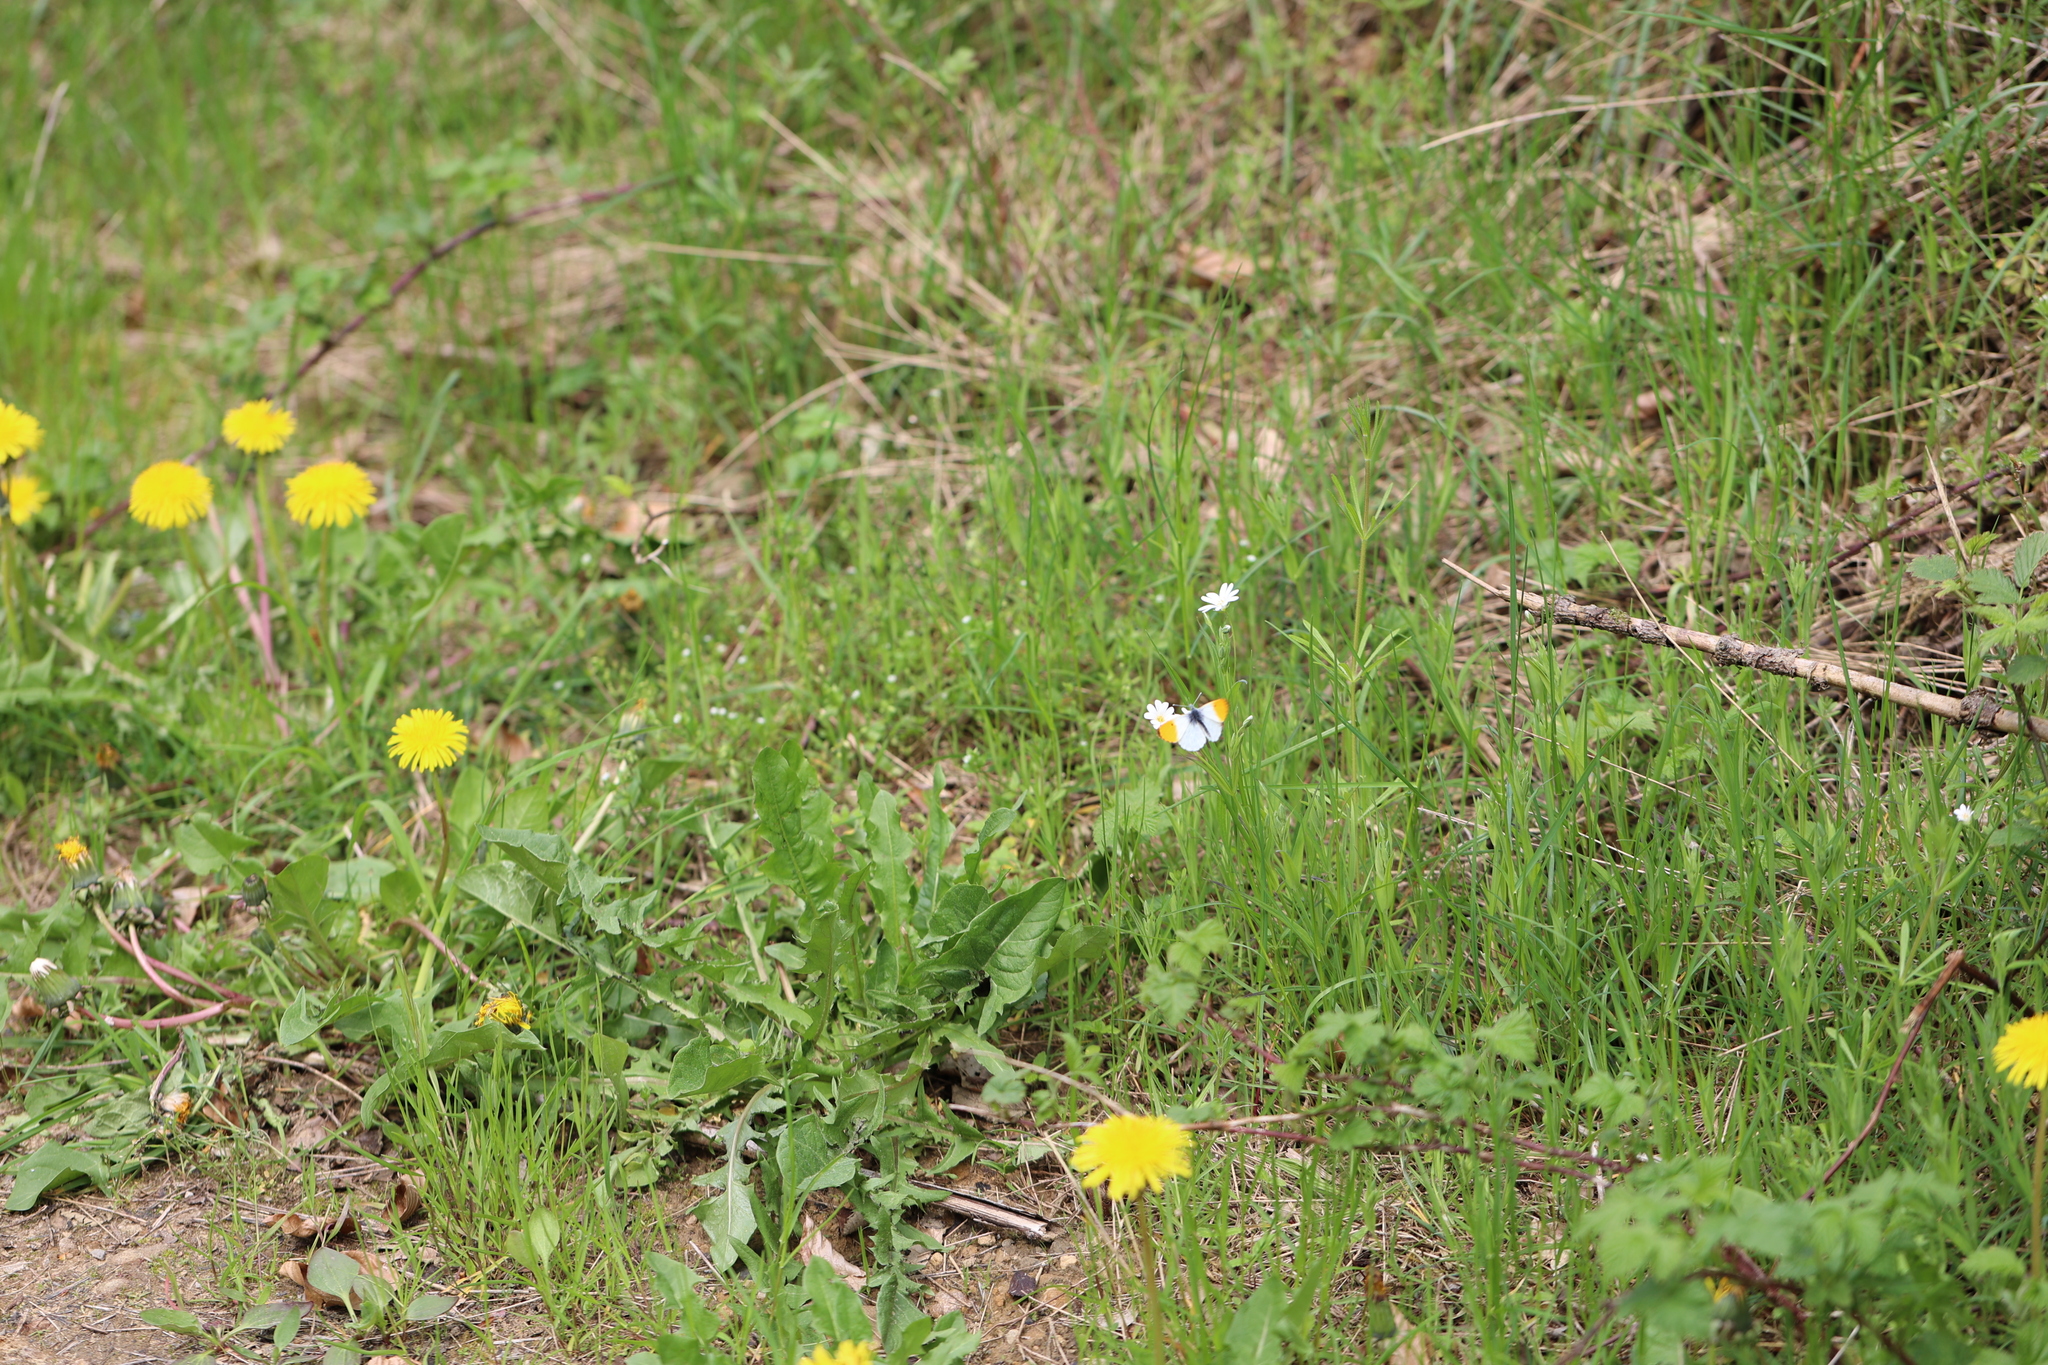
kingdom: Animalia
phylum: Arthropoda
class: Insecta
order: Lepidoptera
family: Pieridae
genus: Anthocharis
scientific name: Anthocharis cardamines
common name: Orange-tip
